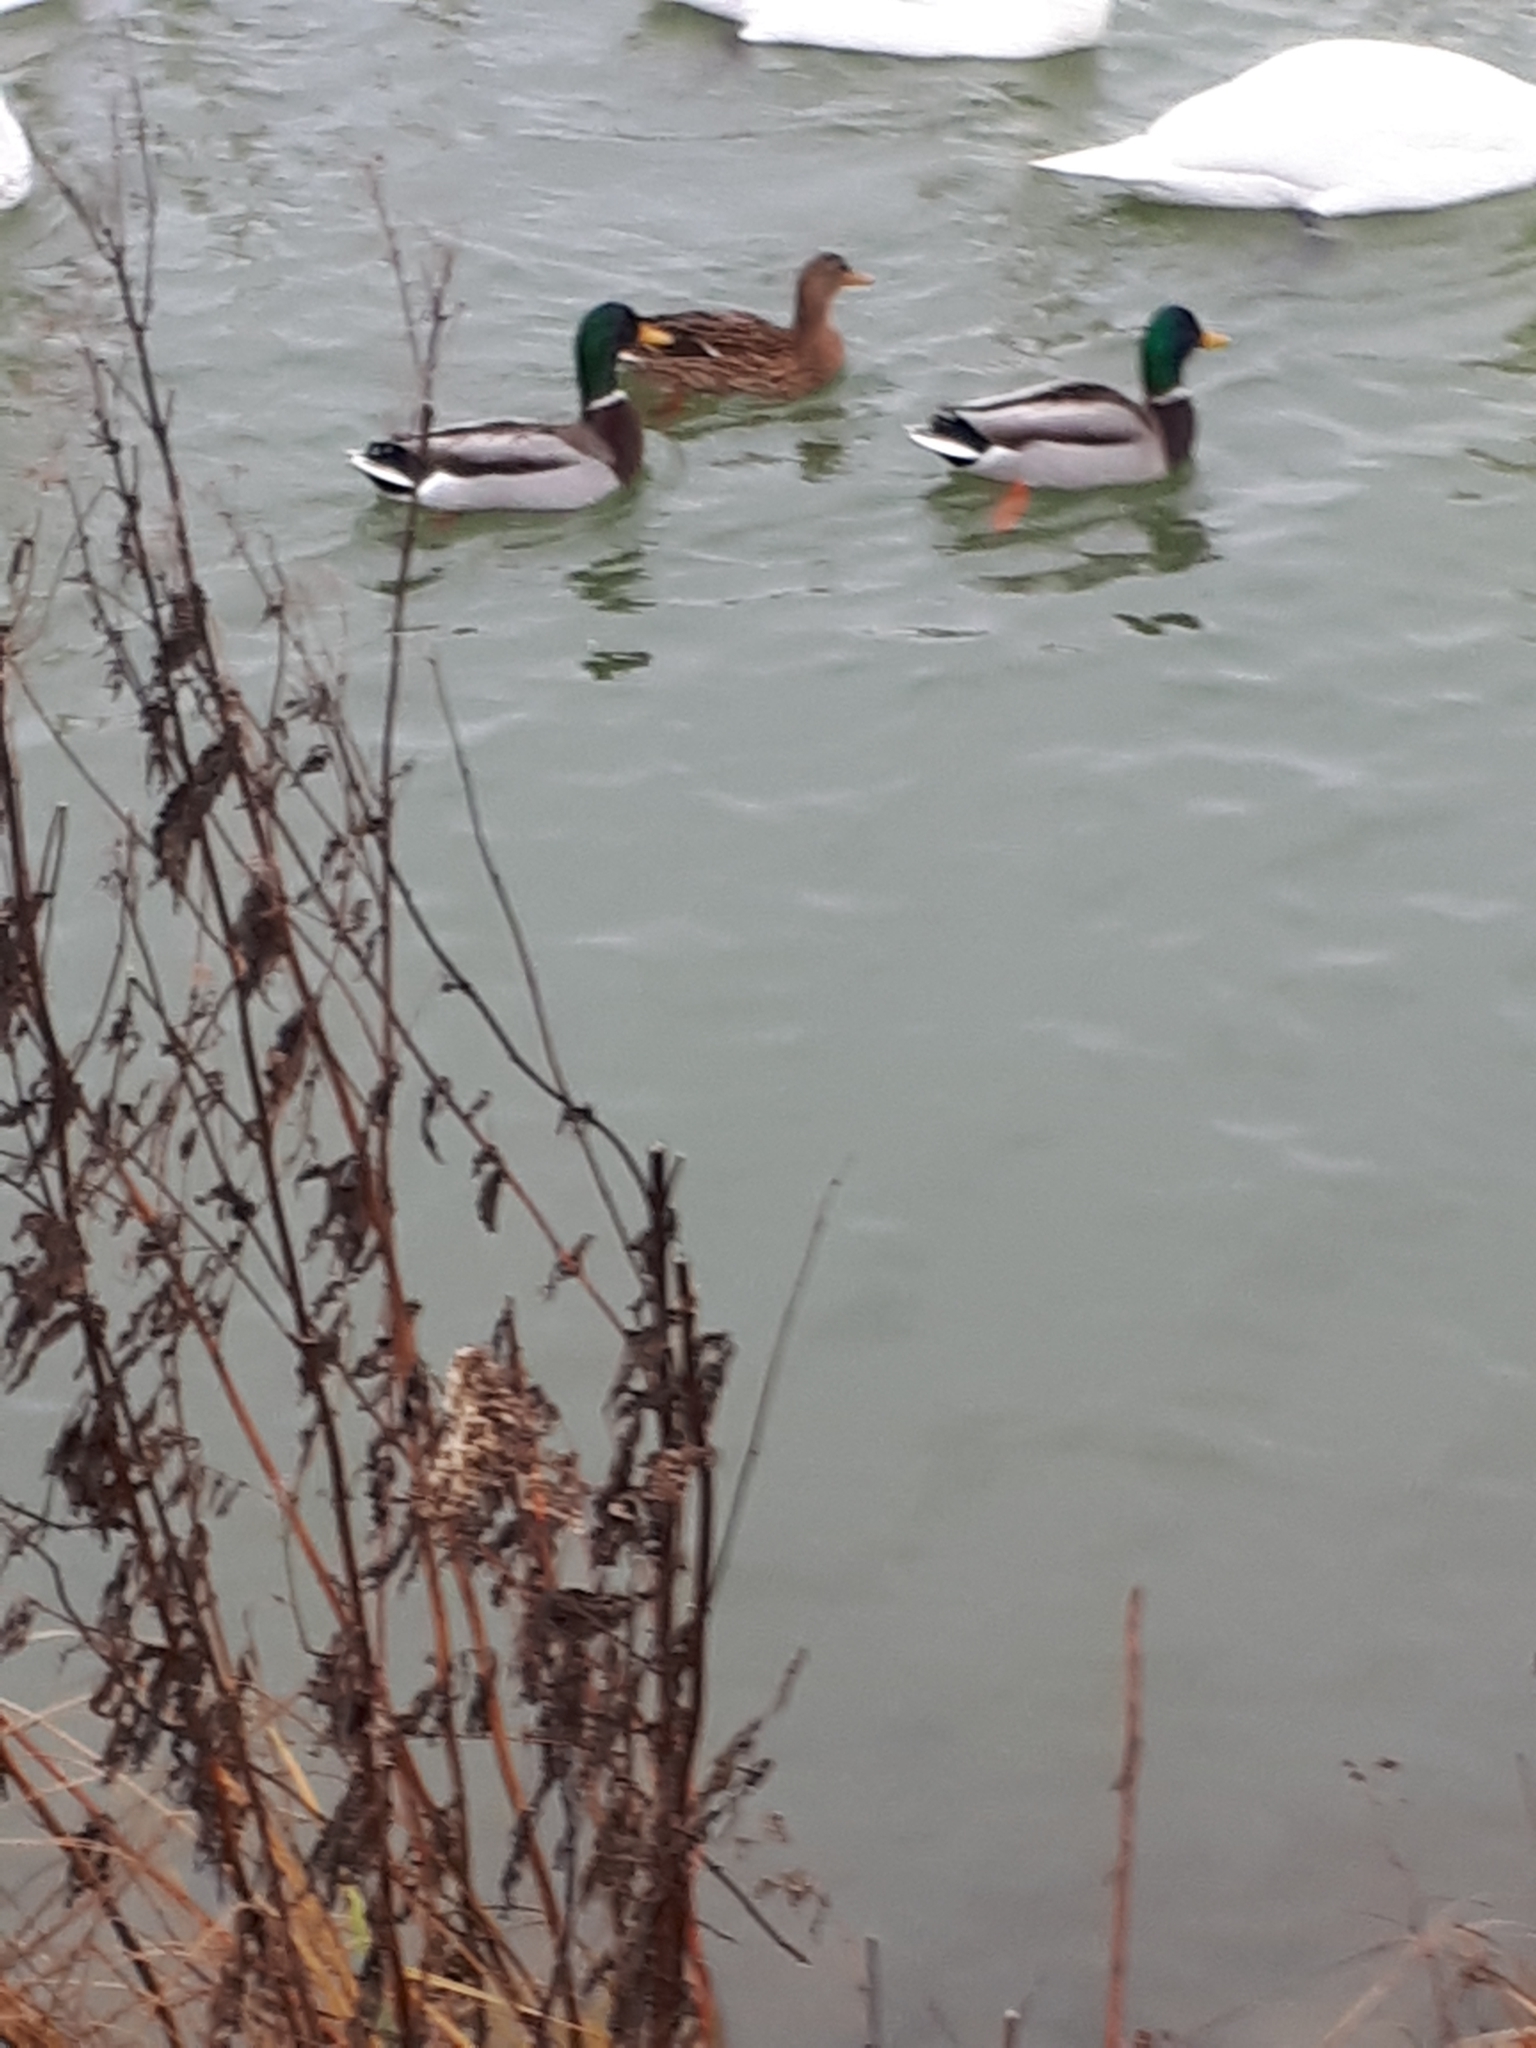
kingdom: Animalia
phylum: Chordata
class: Aves
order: Anseriformes
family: Anatidae
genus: Anas
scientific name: Anas platyrhynchos
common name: Mallard
